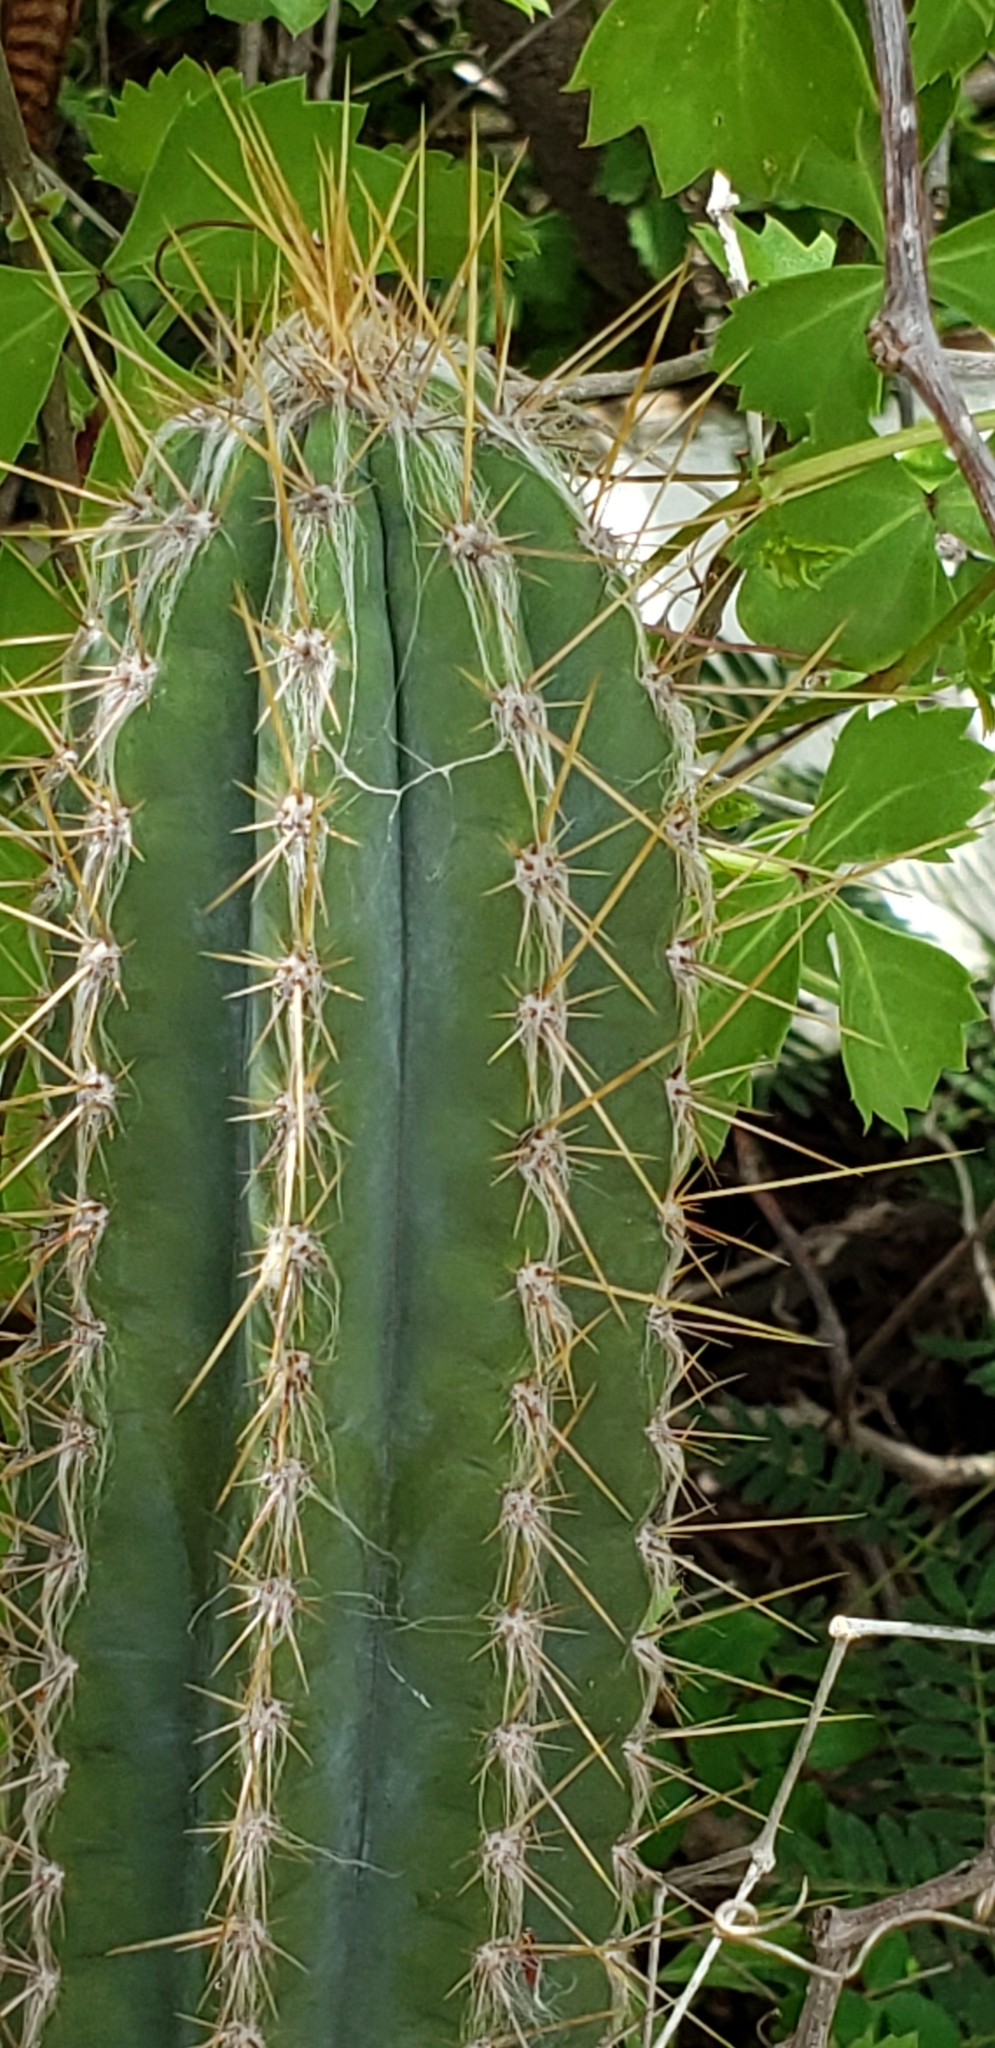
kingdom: Plantae
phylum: Tracheophyta
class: Magnoliopsida
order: Caryophyllales
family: Cactaceae
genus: Pilosocereus
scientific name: Pilosocereus armatus
